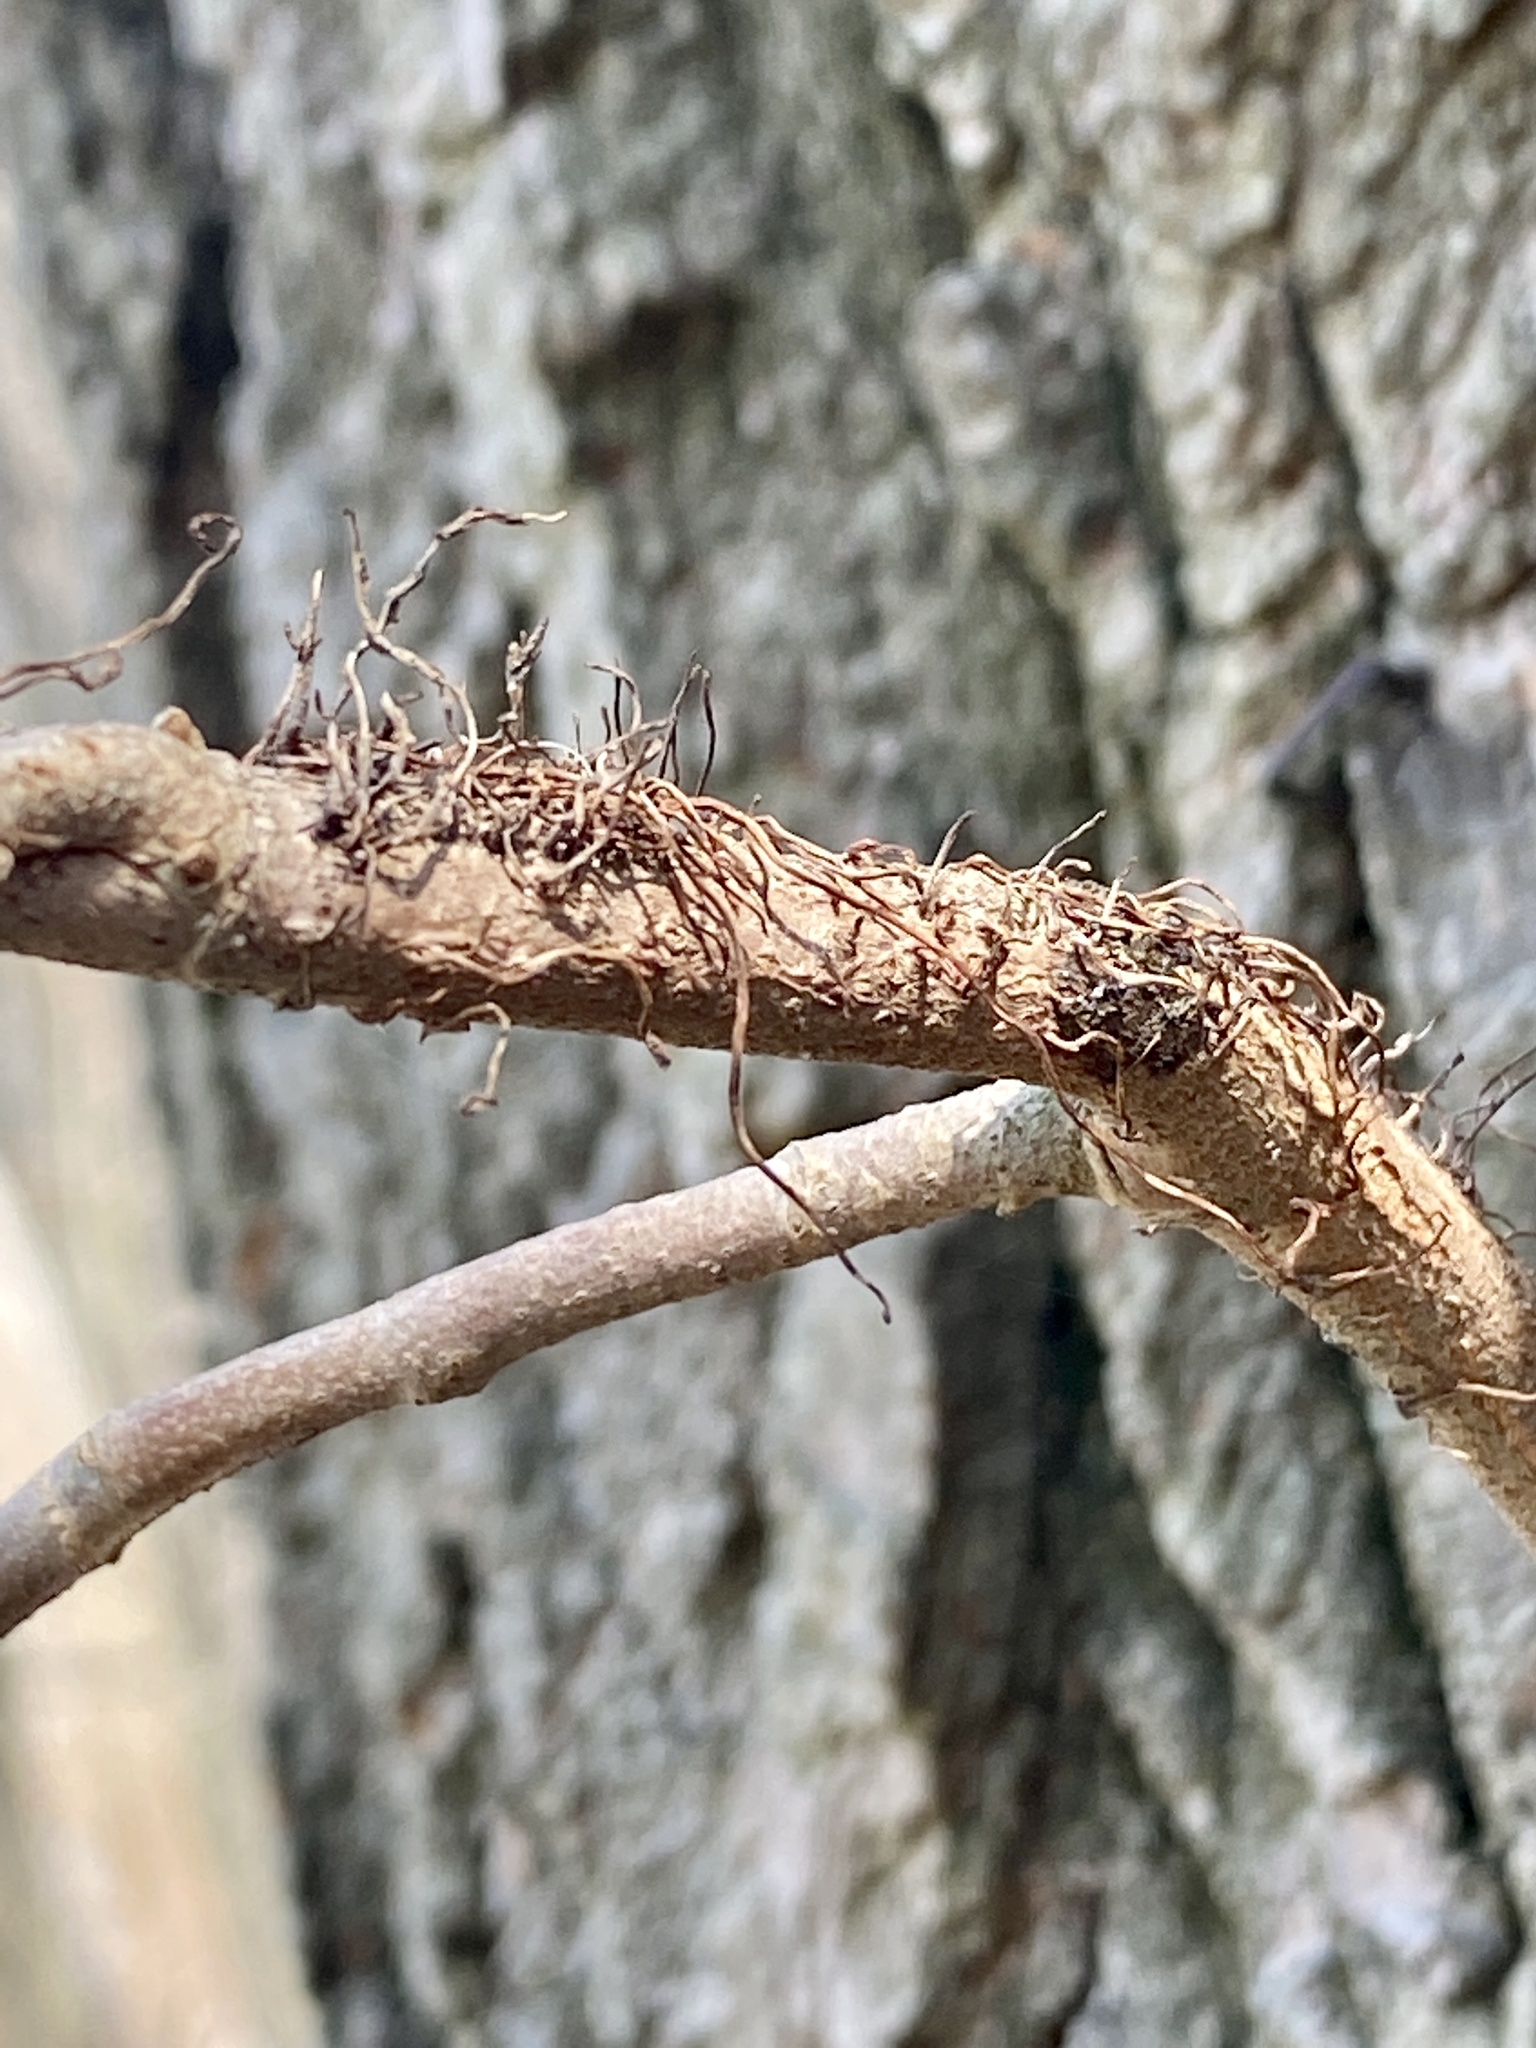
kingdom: Plantae
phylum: Tracheophyta
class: Magnoliopsida
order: Sapindales
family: Anacardiaceae
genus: Toxicodendron
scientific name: Toxicodendron radicans
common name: Poison ivy
